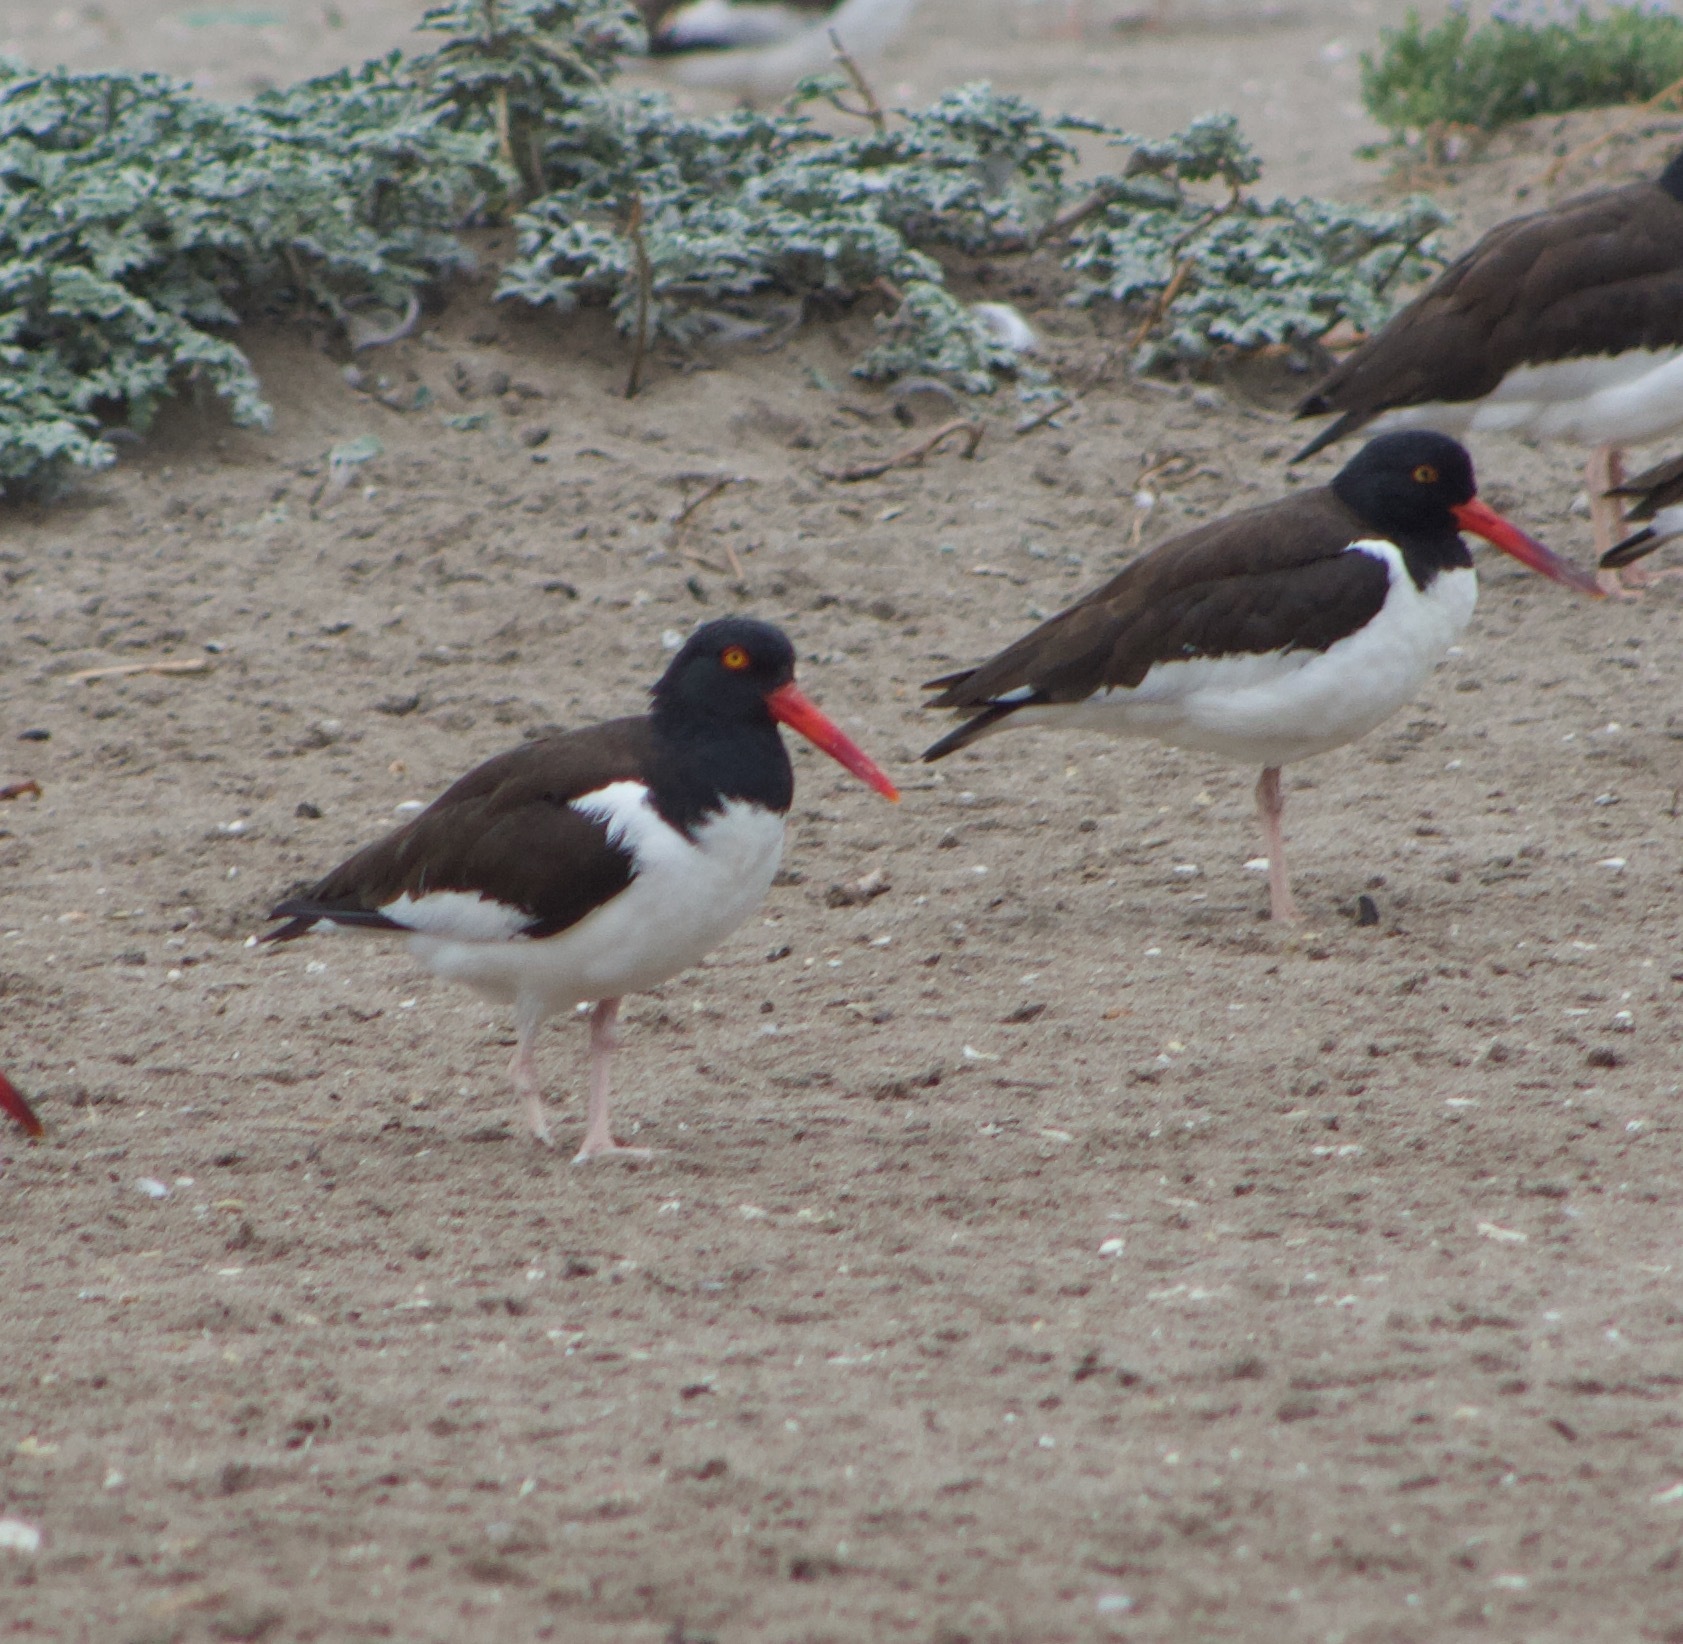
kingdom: Animalia
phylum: Chordata
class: Aves
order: Charadriiformes
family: Haematopodidae
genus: Haematopus
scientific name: Haematopus palliatus
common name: American oystercatcher
